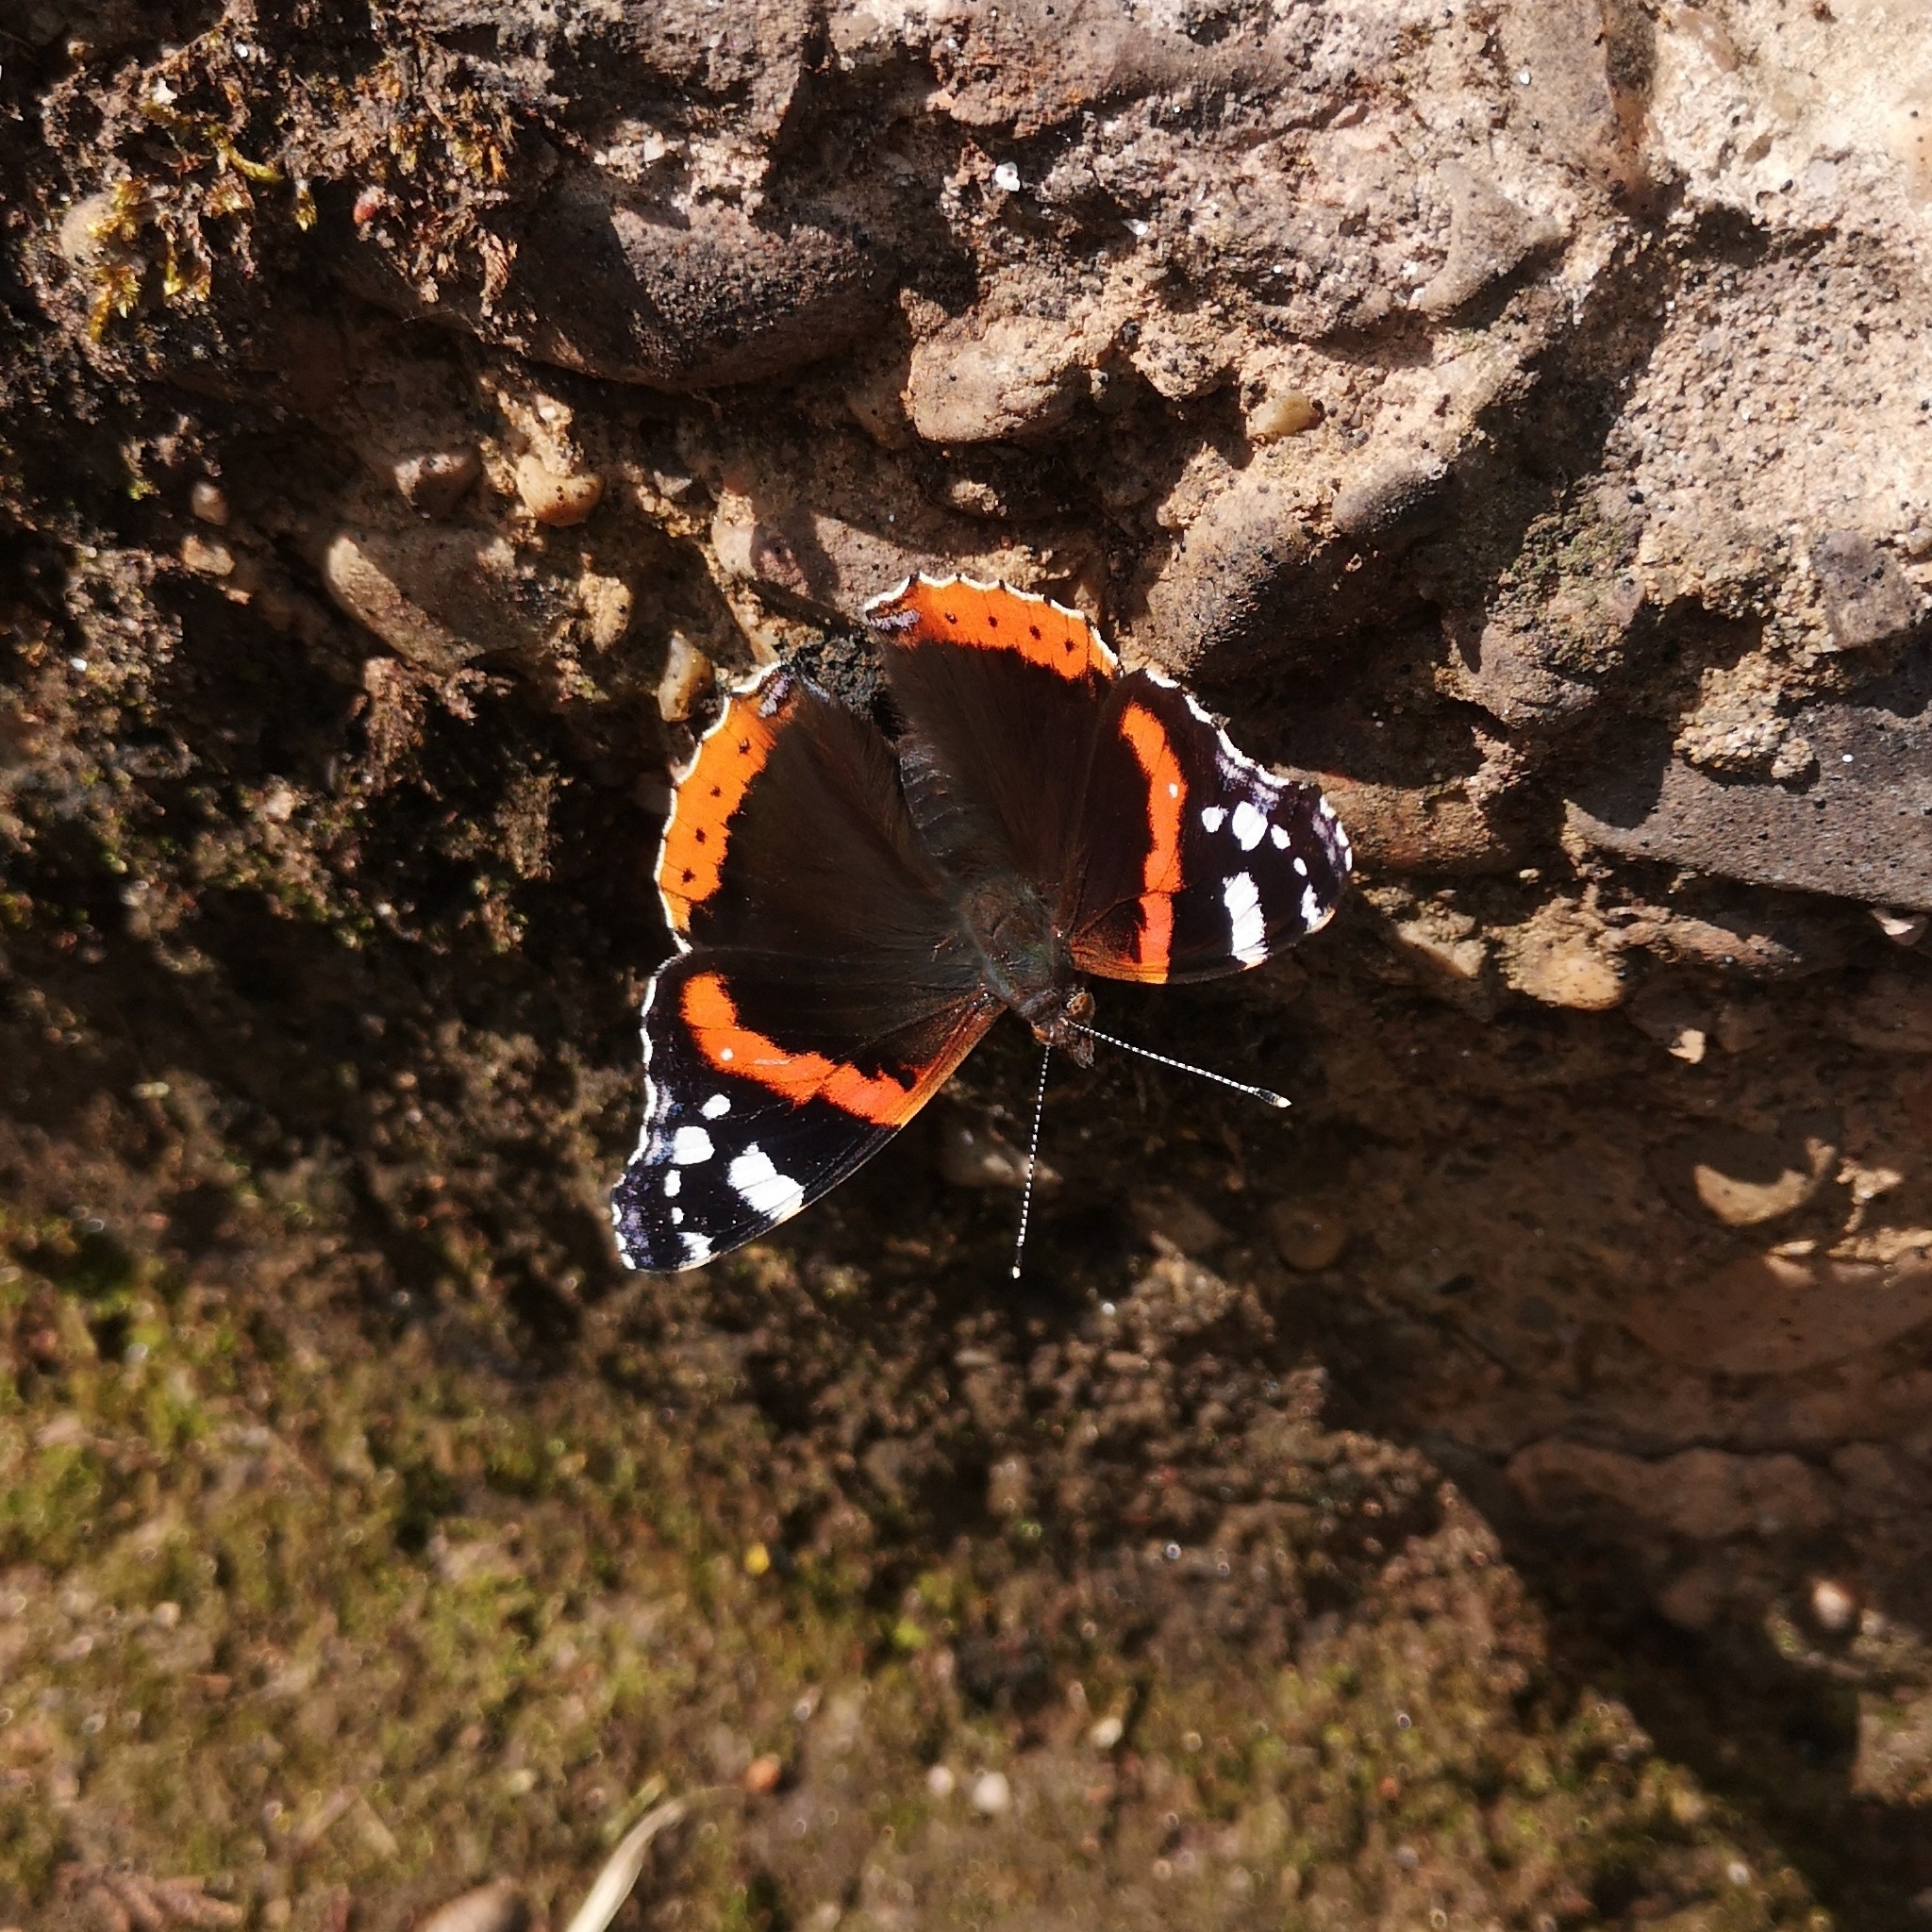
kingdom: Animalia
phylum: Arthropoda
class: Insecta
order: Lepidoptera
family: Nymphalidae
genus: Vanessa
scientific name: Vanessa atalanta
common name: Red admiral
